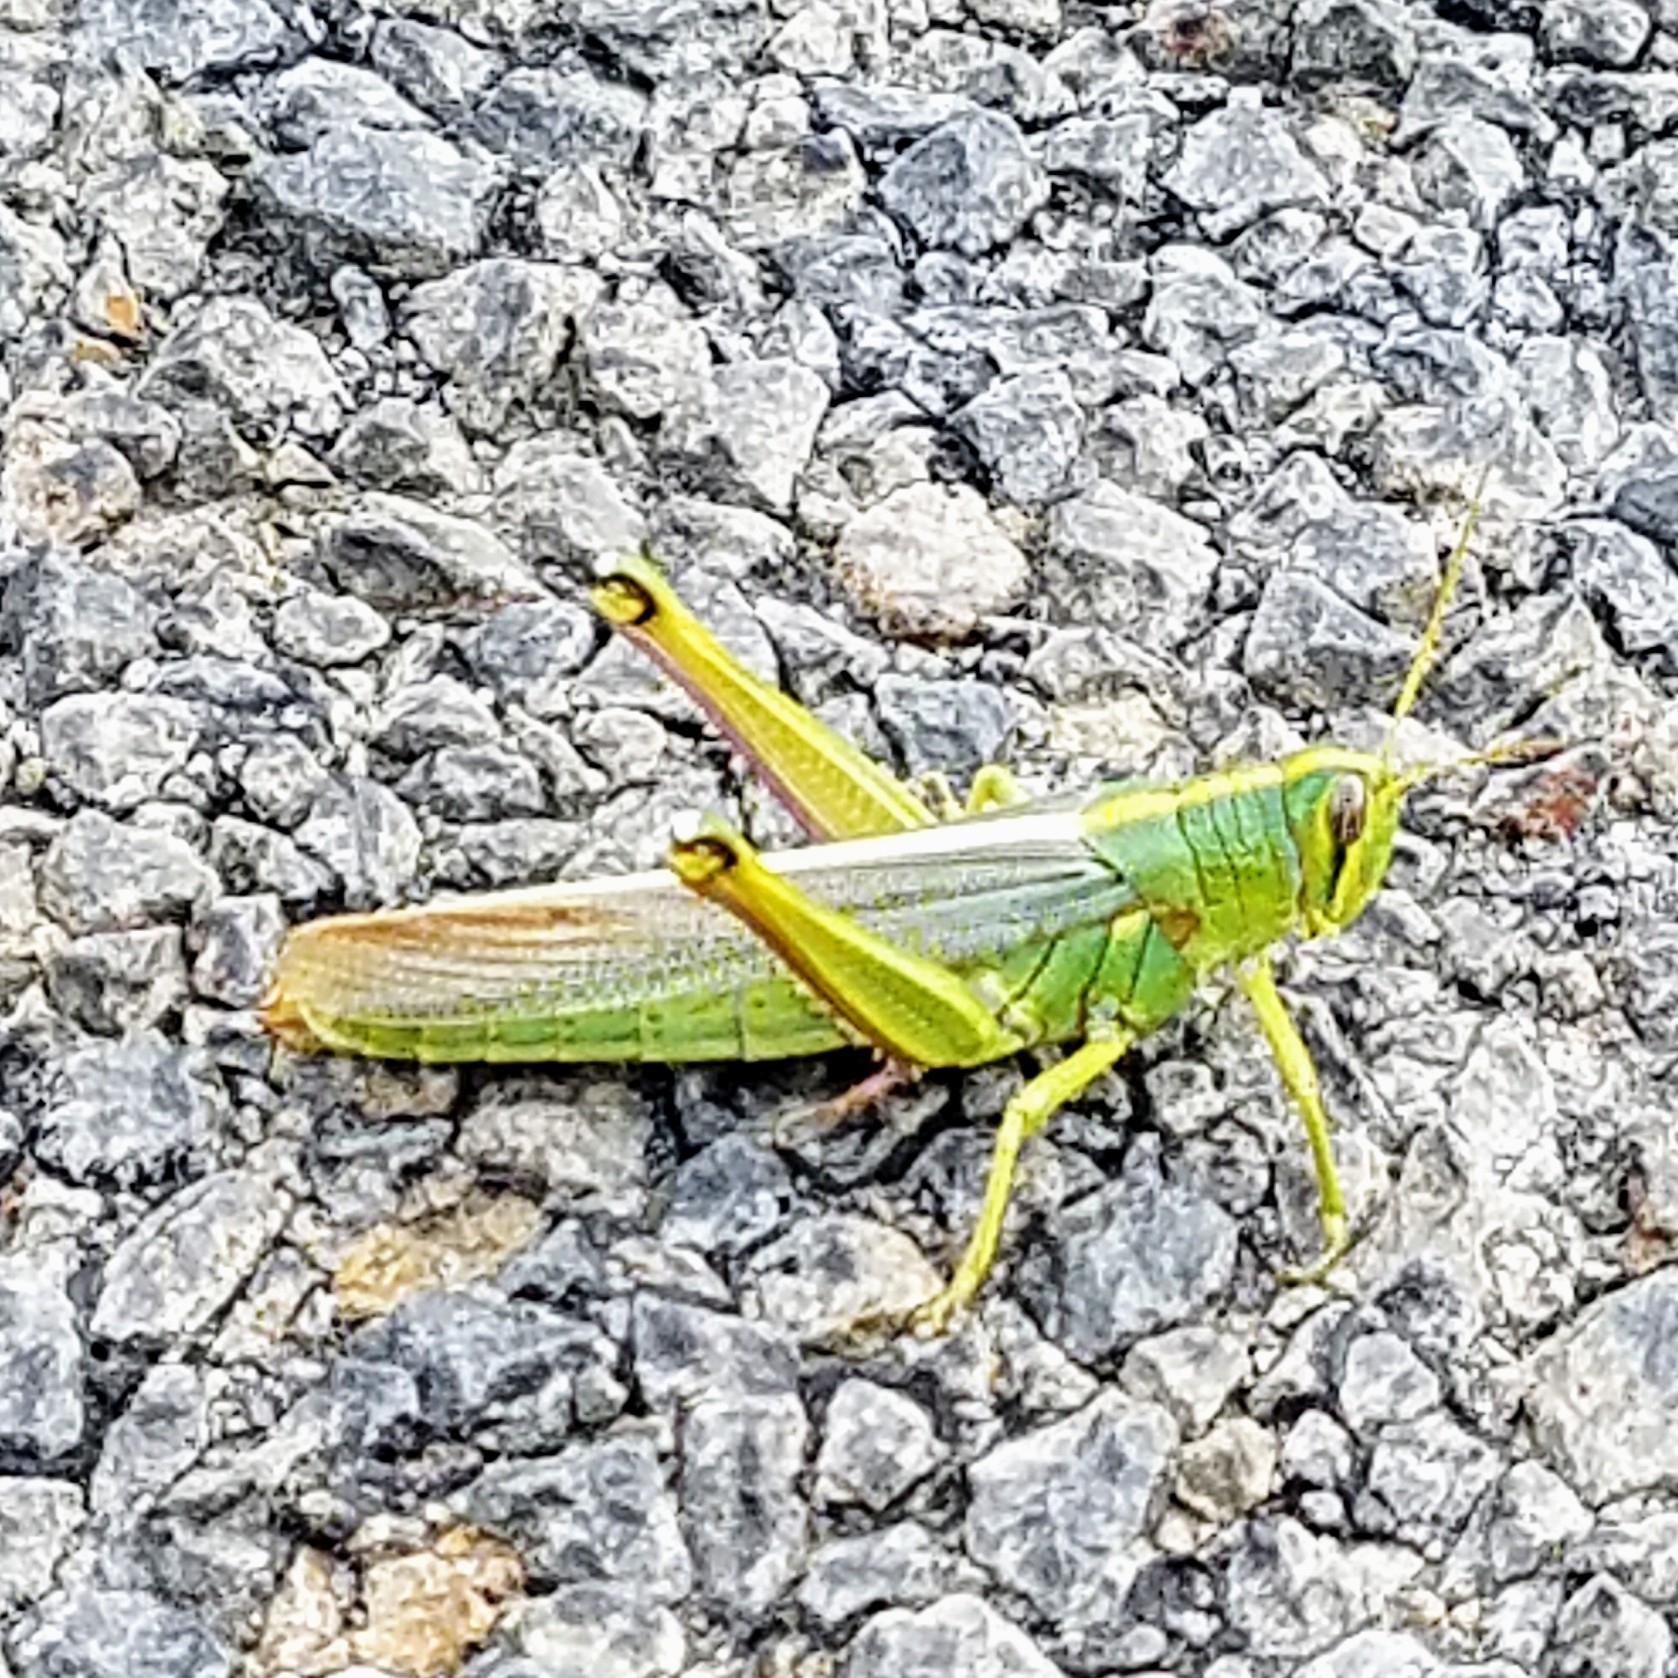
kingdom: Animalia
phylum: Arthropoda
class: Insecta
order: Orthoptera
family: Acrididae
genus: Schistocerca
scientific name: Schistocerca lineata
